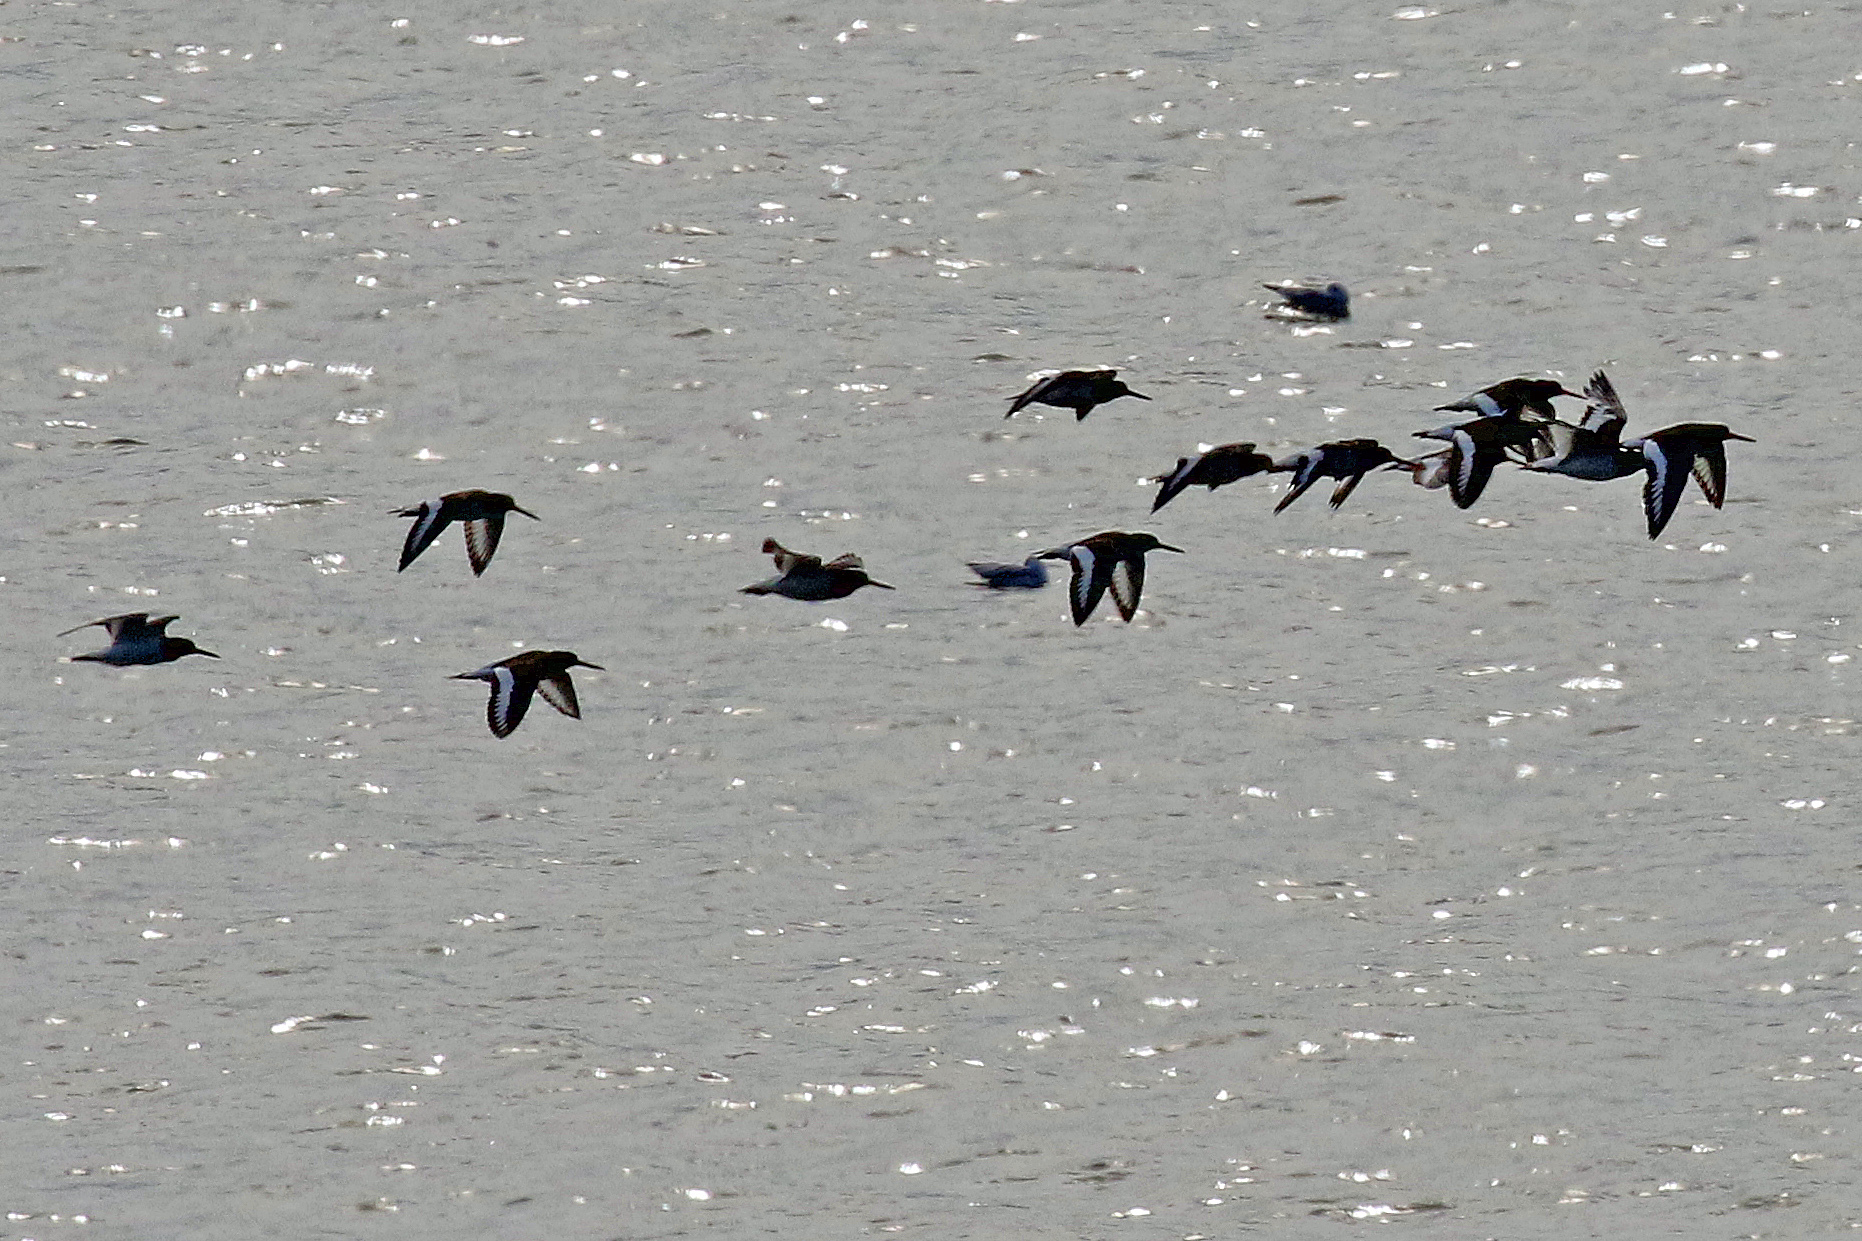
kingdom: Animalia
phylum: Chordata
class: Aves
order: Charadriiformes
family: Haematopodidae
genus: Haematopus
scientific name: Haematopus ostralegus
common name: Eurasian oystercatcher
